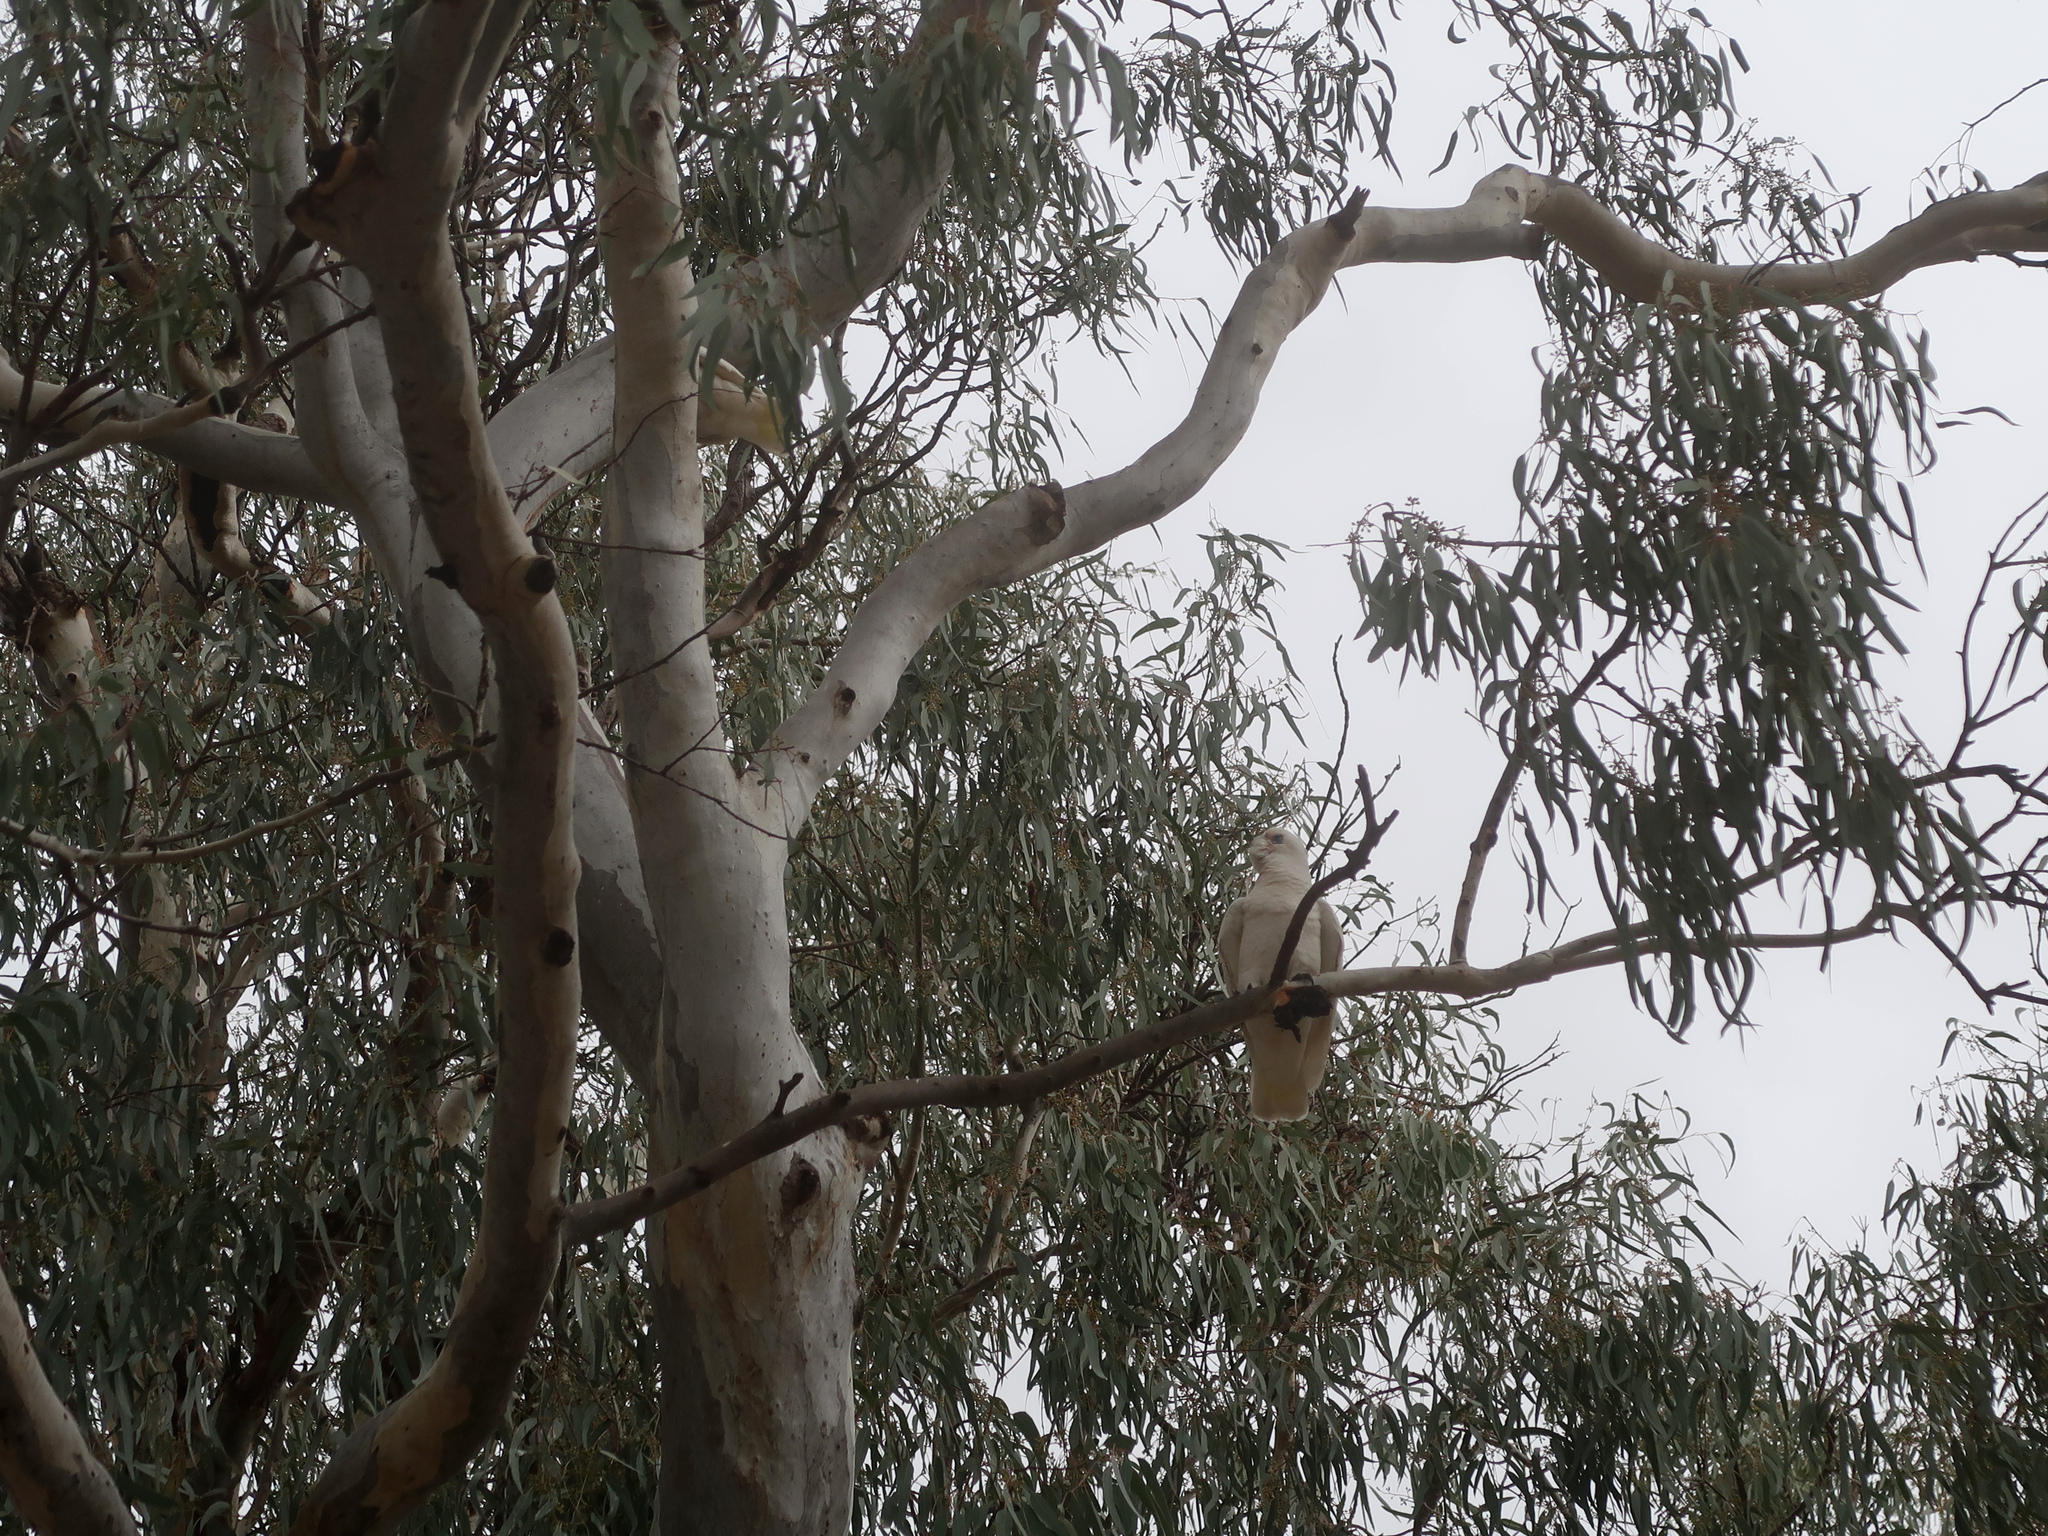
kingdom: Animalia
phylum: Chordata
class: Aves
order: Psittaciformes
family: Psittacidae
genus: Cacatua
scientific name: Cacatua sanguinea
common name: Little corella
